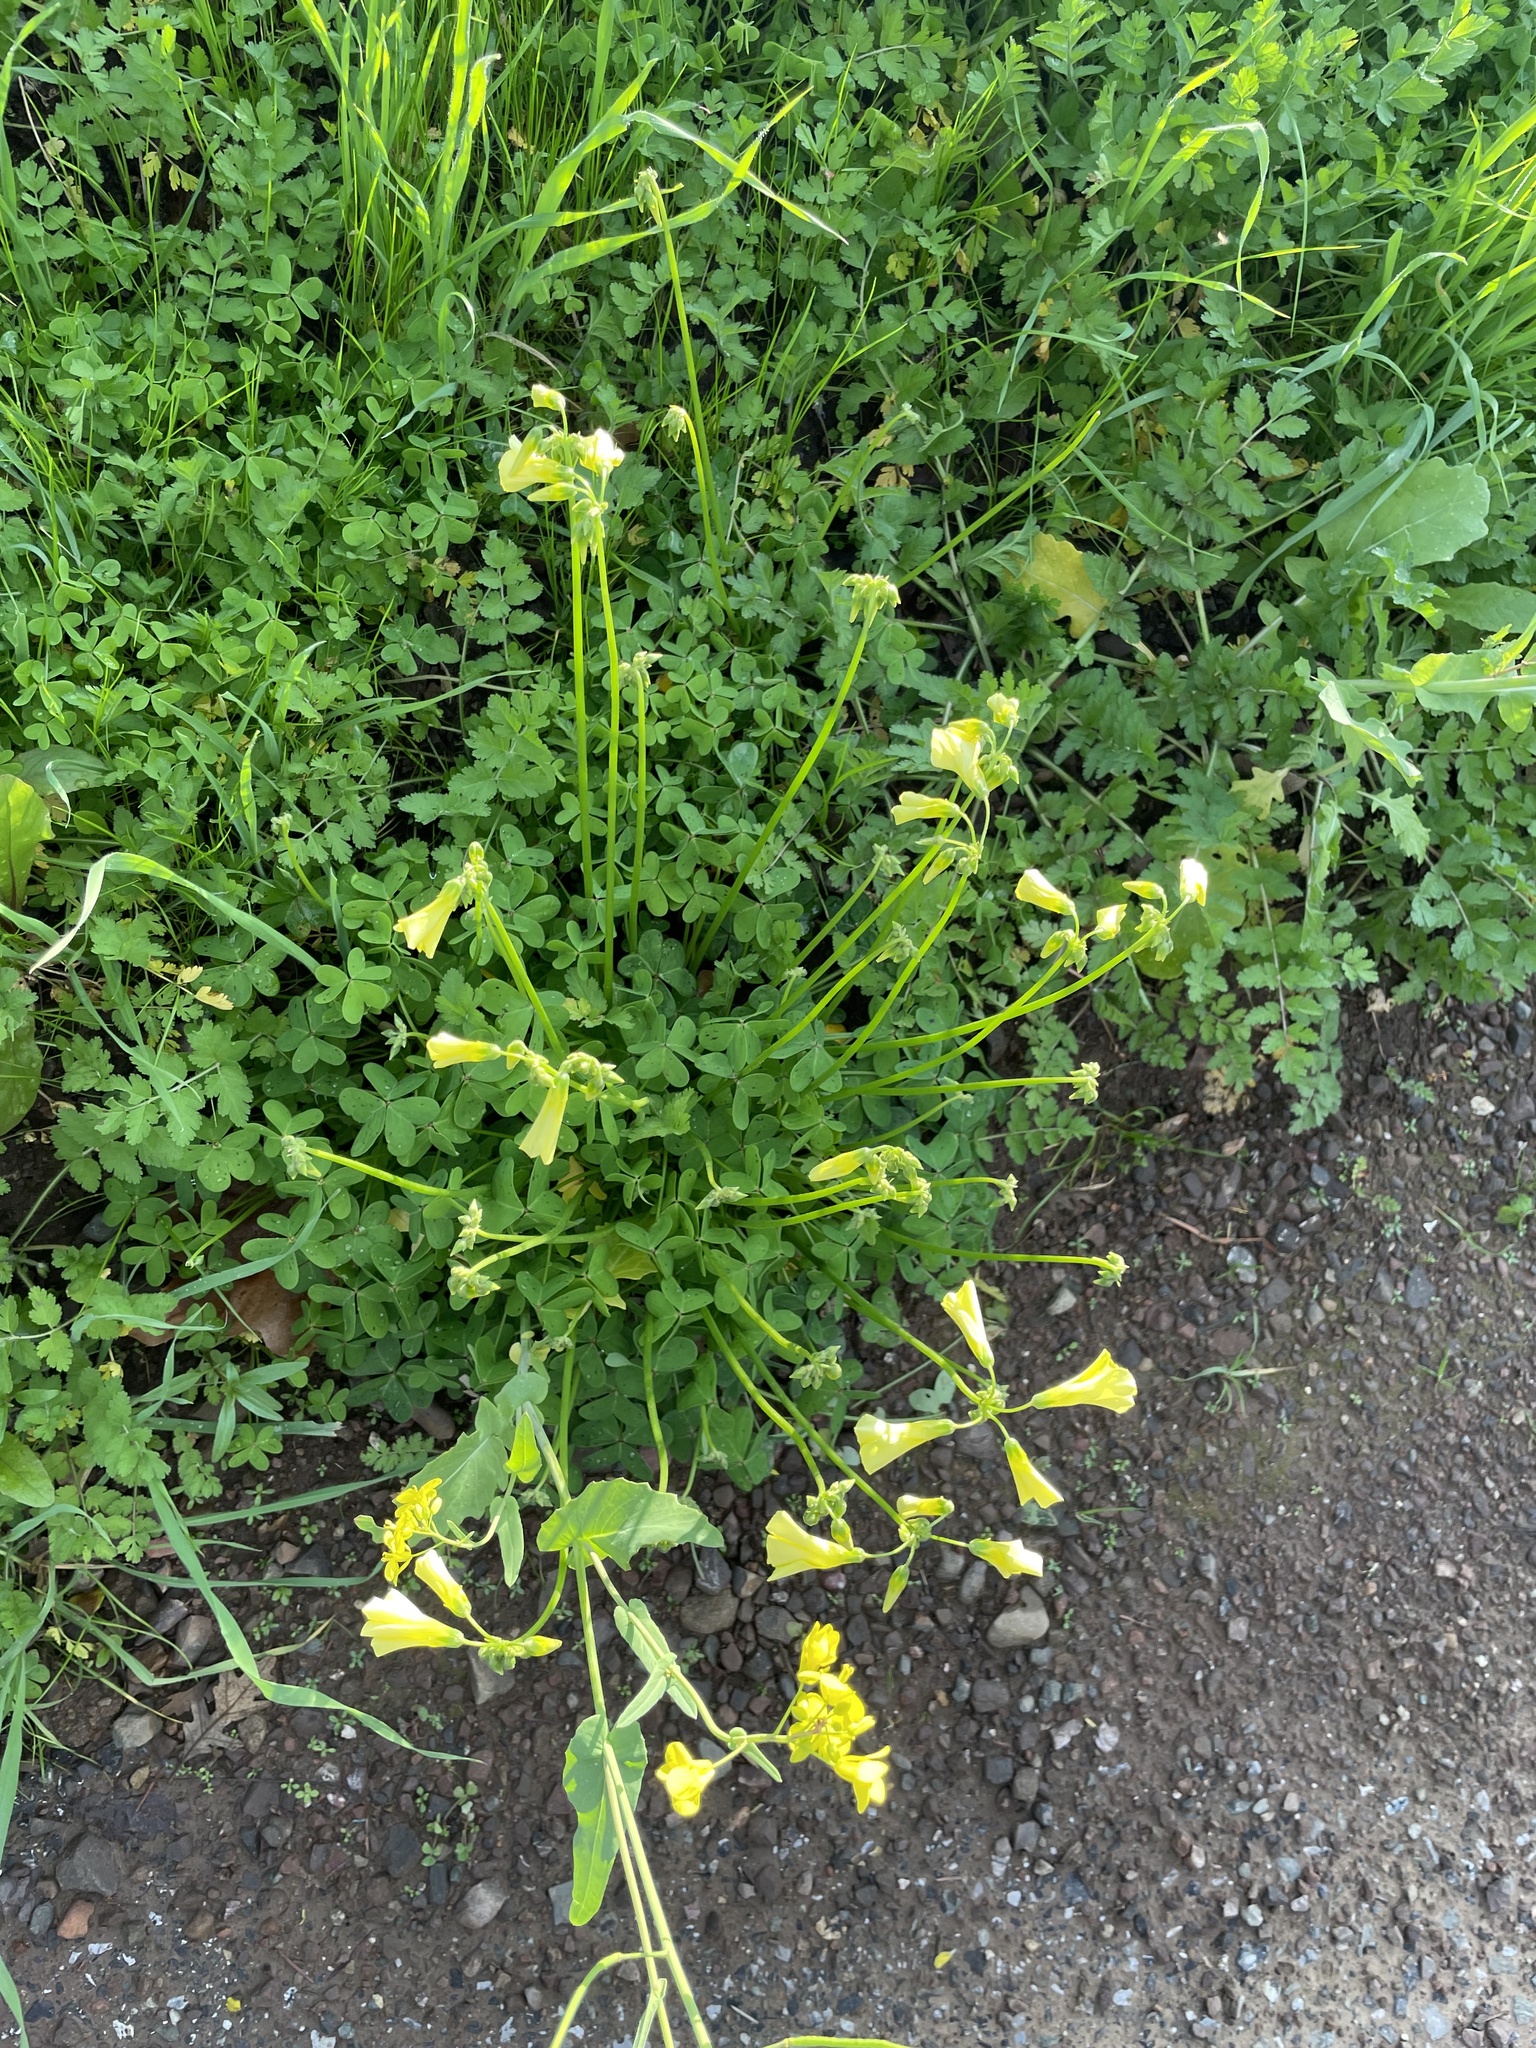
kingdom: Plantae
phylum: Tracheophyta
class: Magnoliopsida
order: Oxalidales
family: Oxalidaceae
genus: Oxalis
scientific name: Oxalis pes-caprae
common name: Bermuda-buttercup
